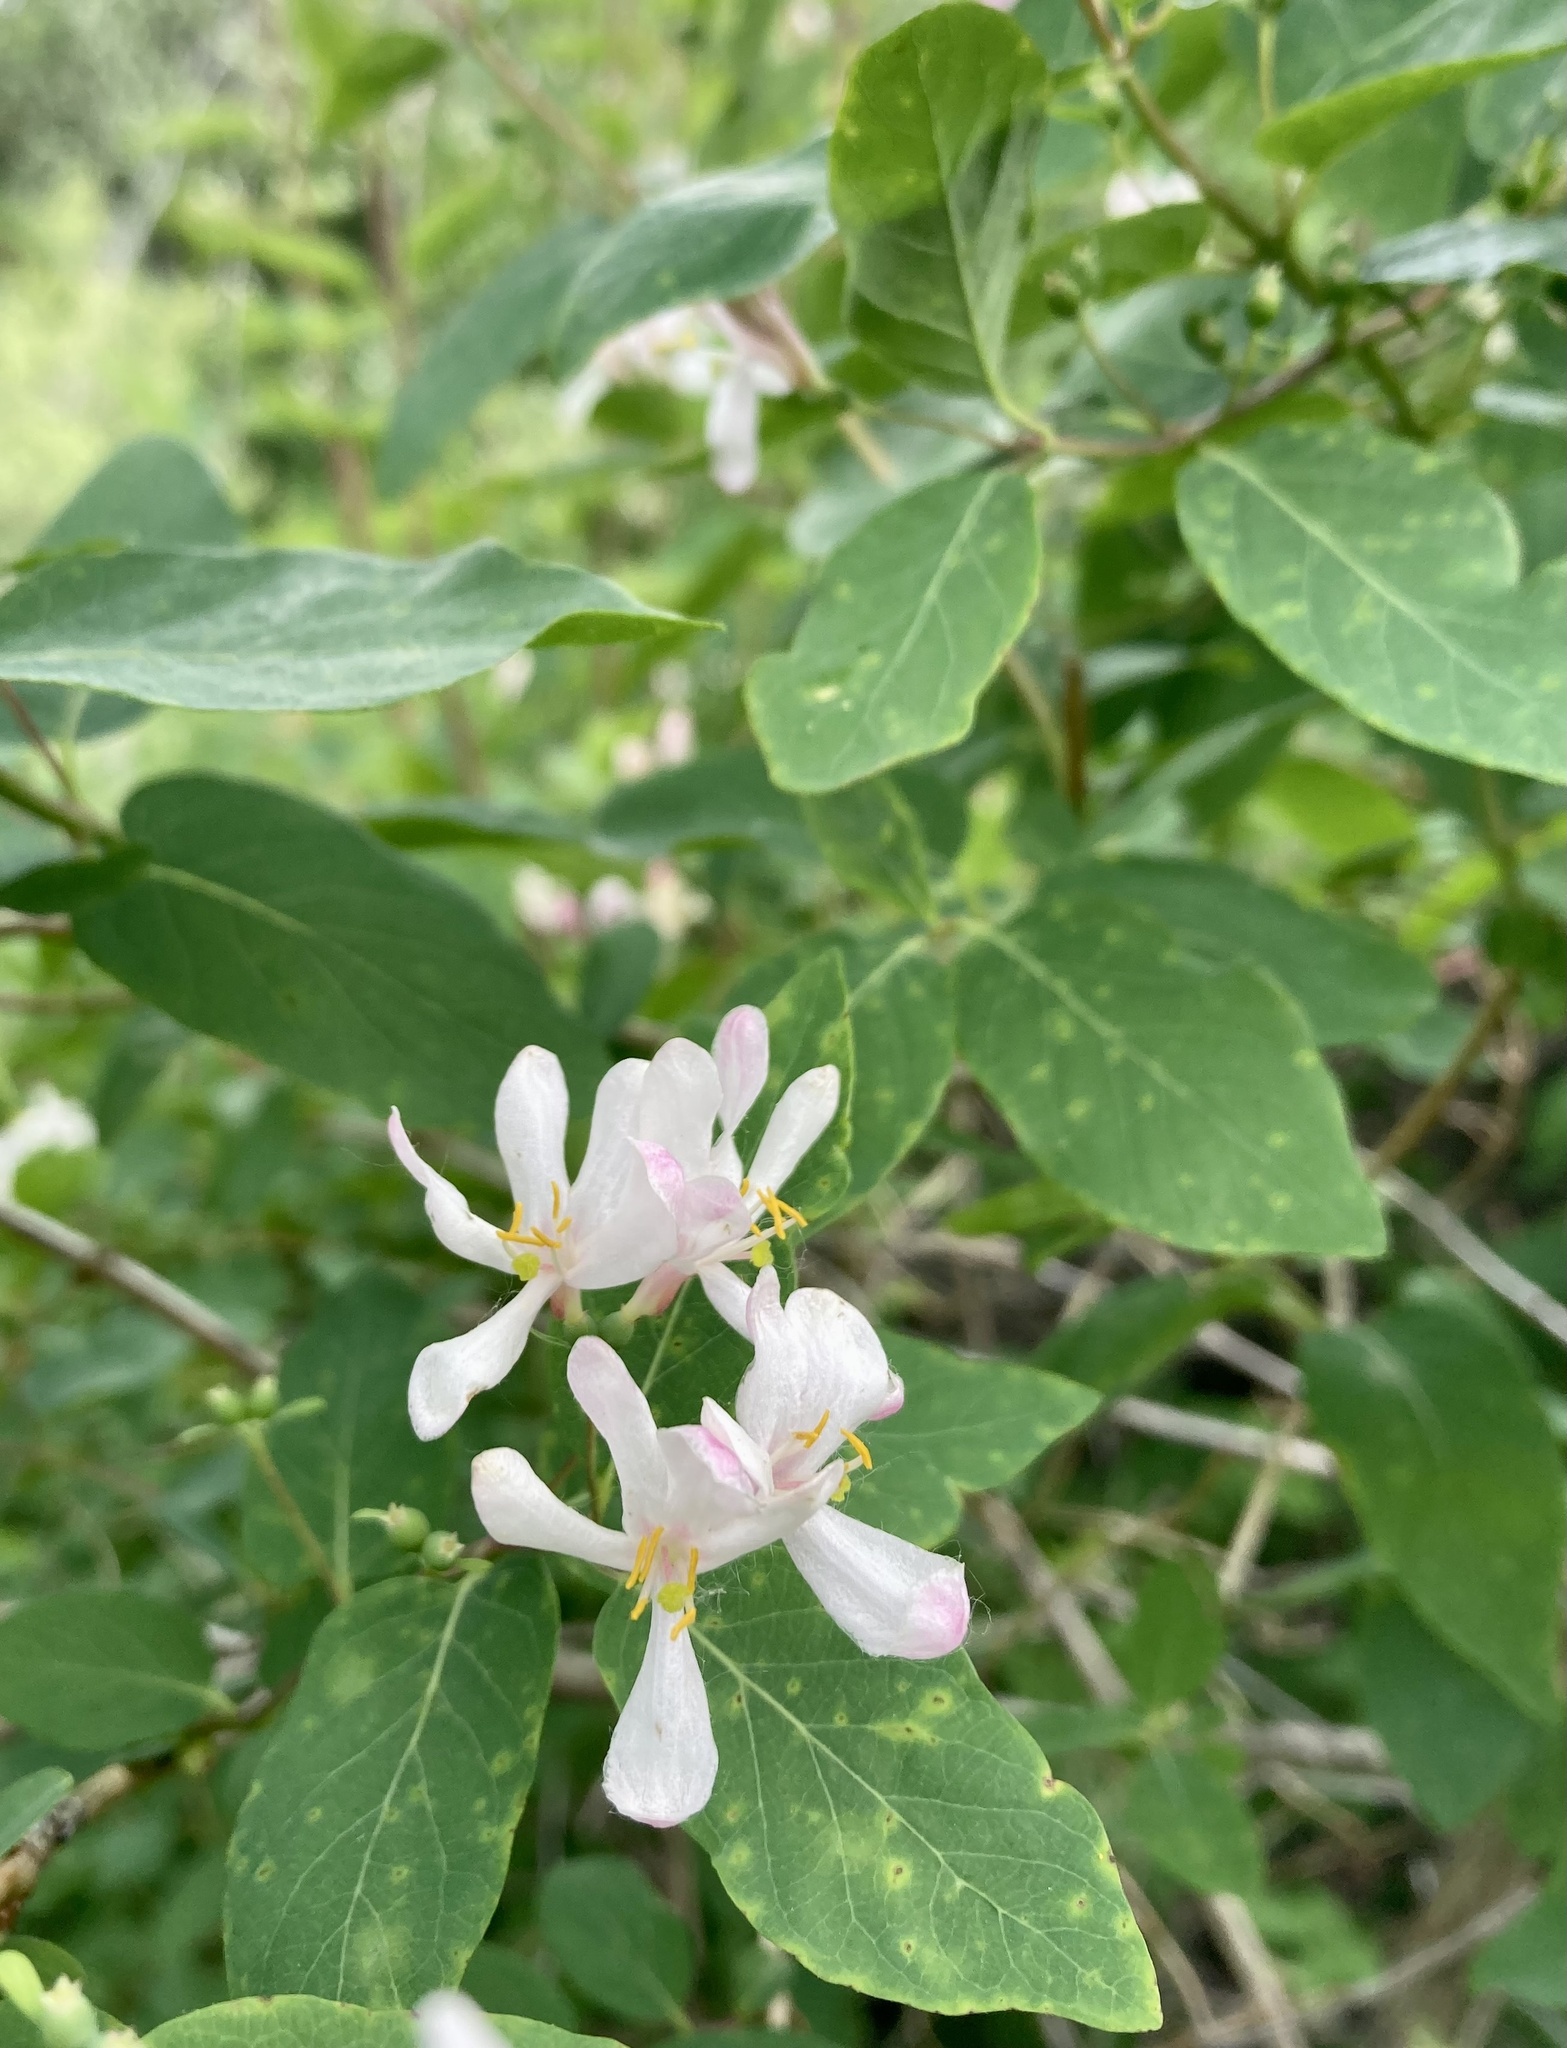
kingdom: Plantae
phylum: Tracheophyta
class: Magnoliopsida
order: Dipsacales
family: Caprifoliaceae
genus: Lonicera
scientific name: Lonicera tatarica
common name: Tatarian honeysuckle
